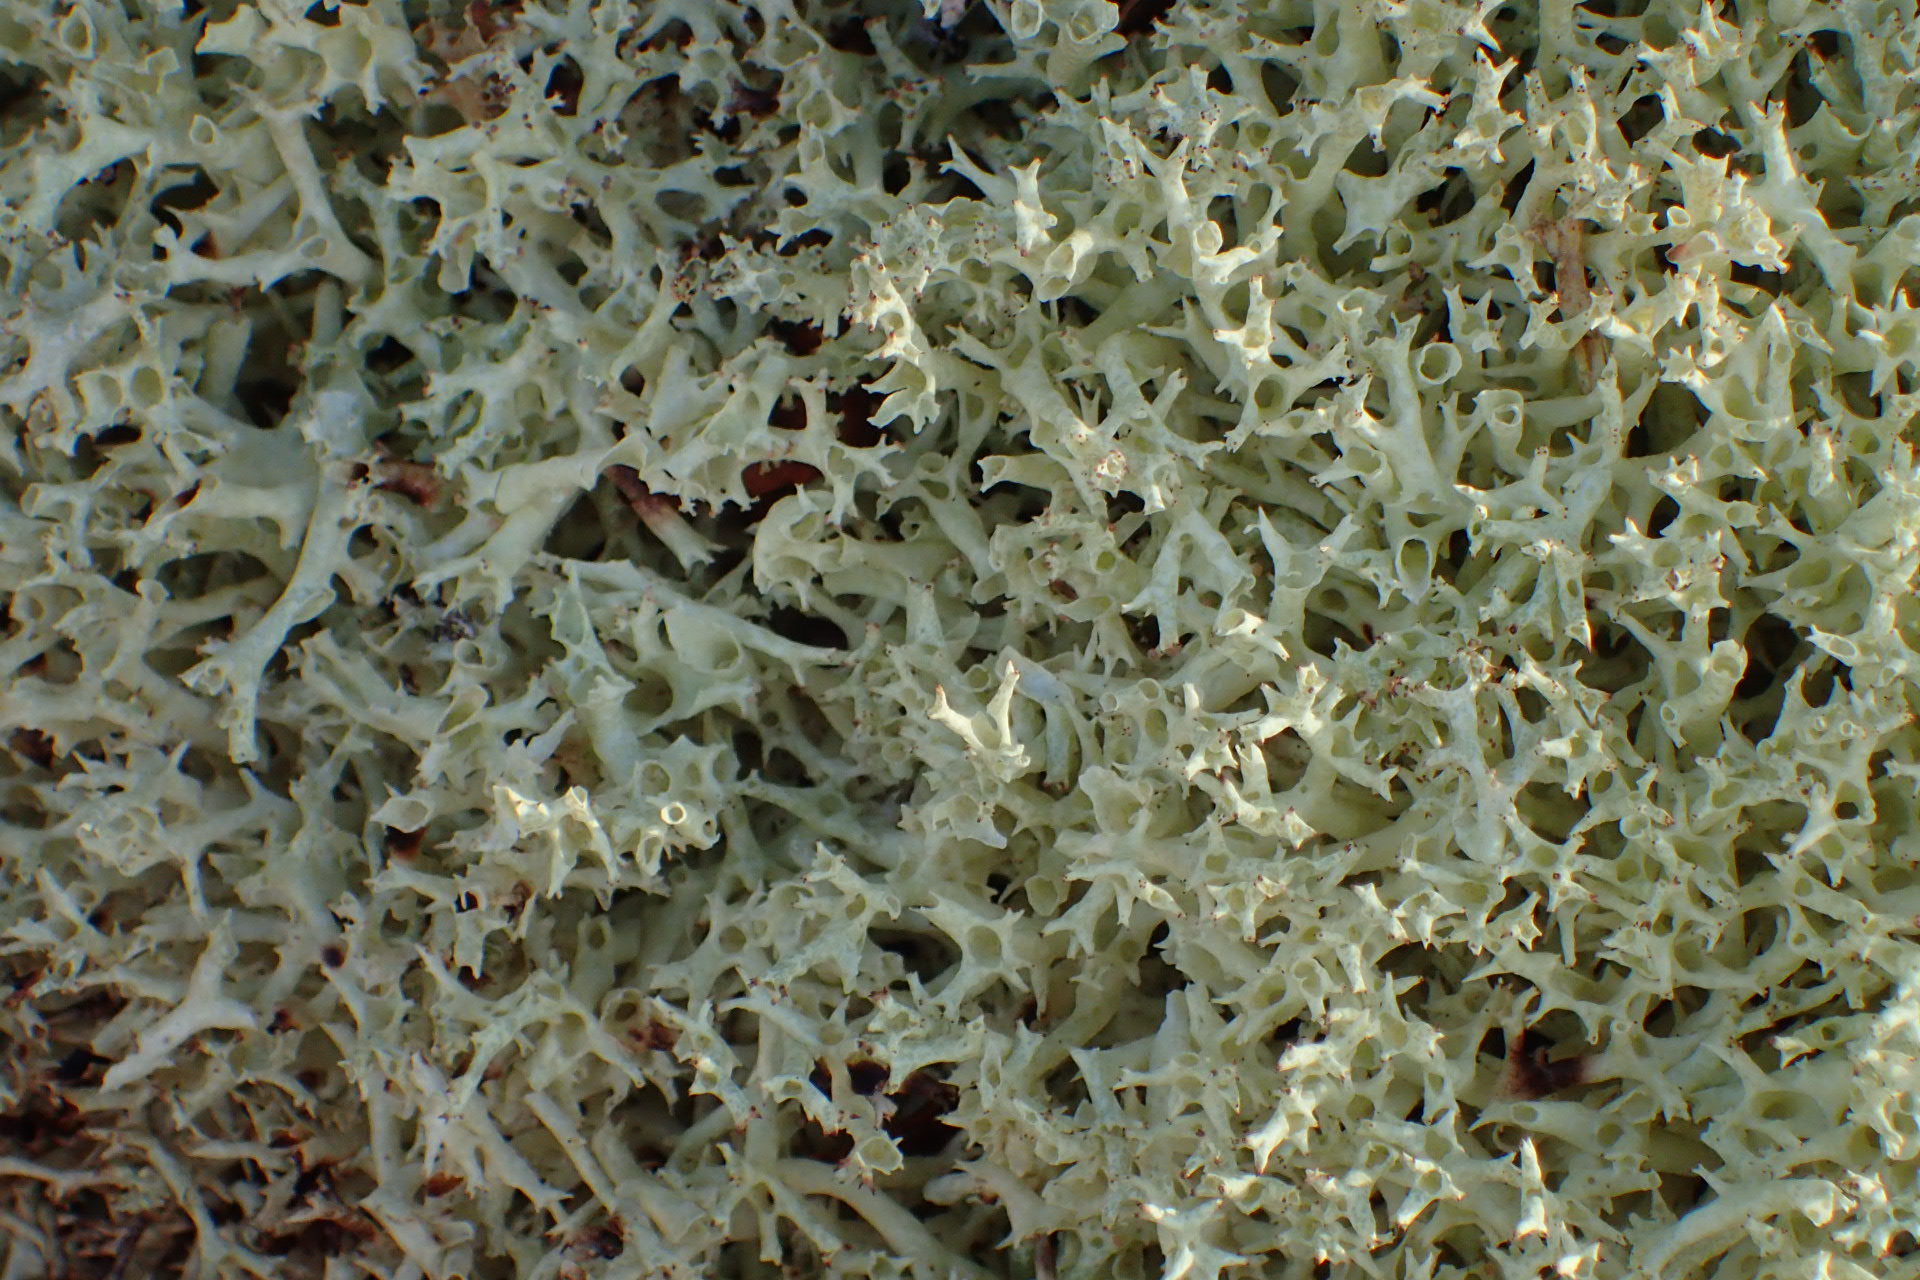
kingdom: Fungi
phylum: Ascomycota
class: Lecanoromycetes
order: Lecanorales
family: Cladoniaceae
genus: Cladonia
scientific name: Cladonia uncialis
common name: Thorn lichen
